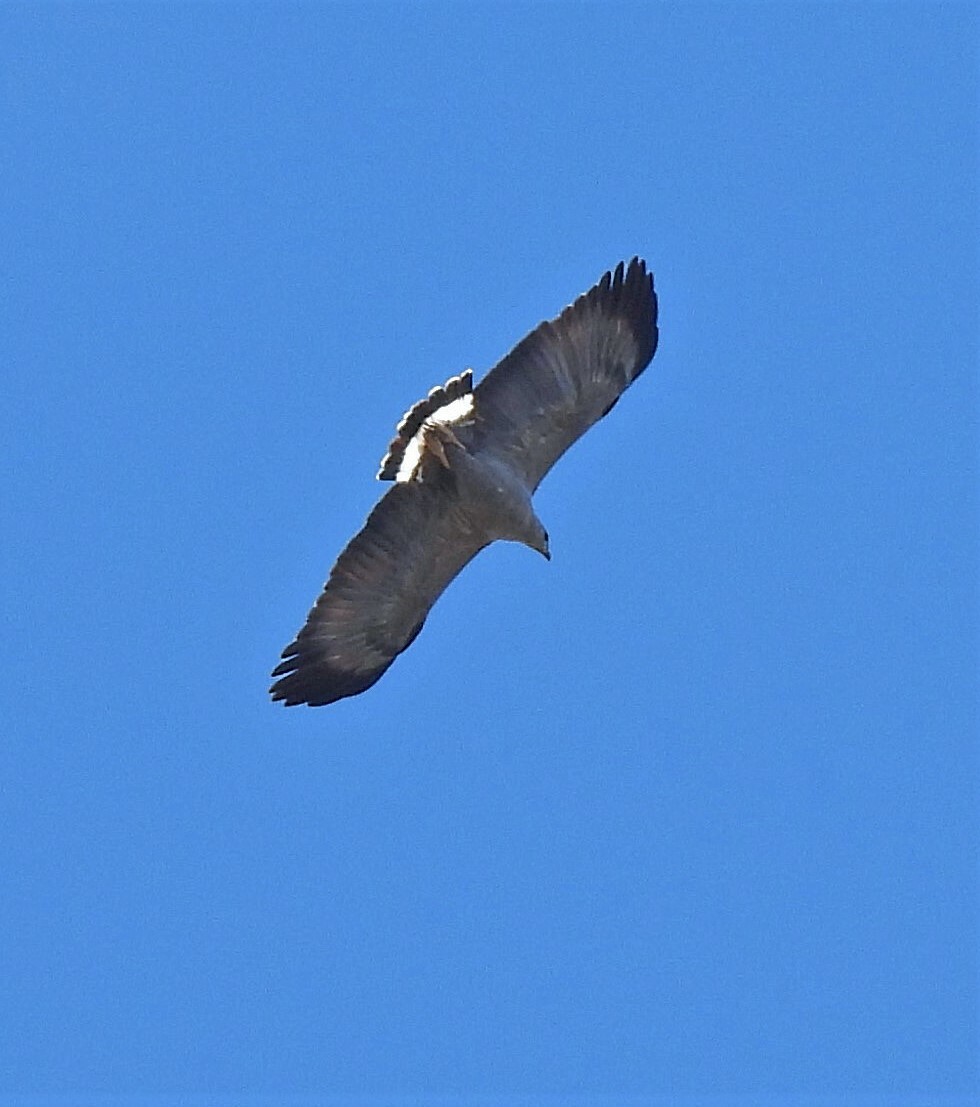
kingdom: Animalia
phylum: Chordata
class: Aves
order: Accipitriformes
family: Accipitridae
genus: Harpyhaliaetus
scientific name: Harpyhaliaetus coronatus
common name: Crowned solitary eagle
